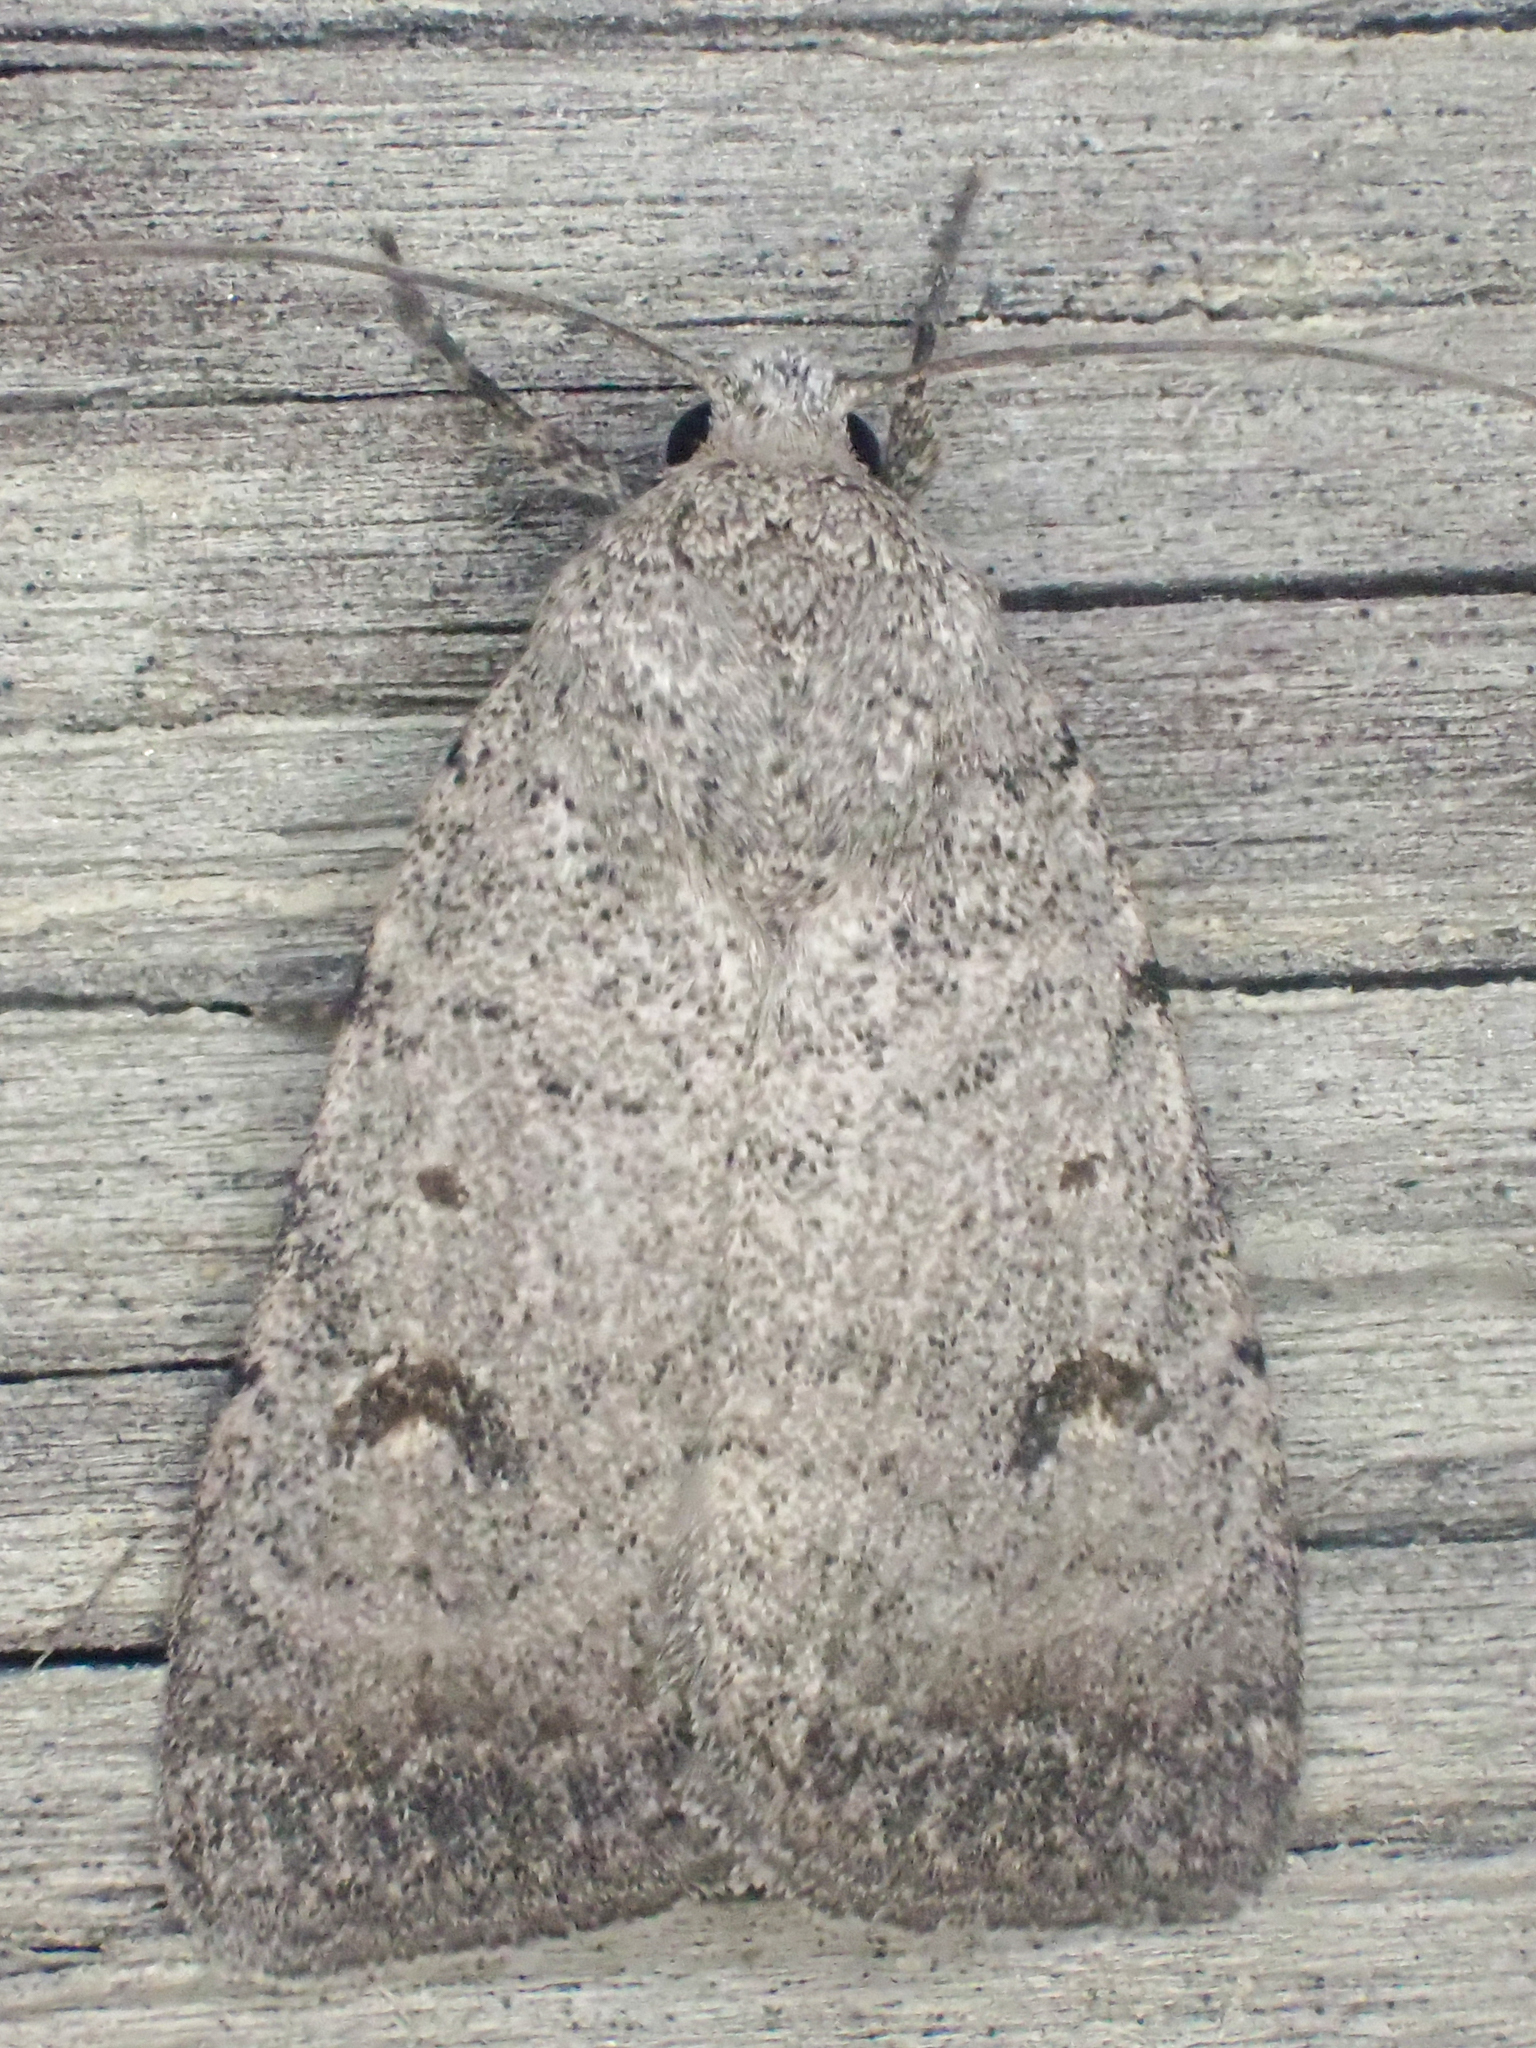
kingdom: Animalia
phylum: Arthropoda
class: Insecta
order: Lepidoptera
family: Noctuidae
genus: Caradrina
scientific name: Caradrina meralis
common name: Sand quaker
